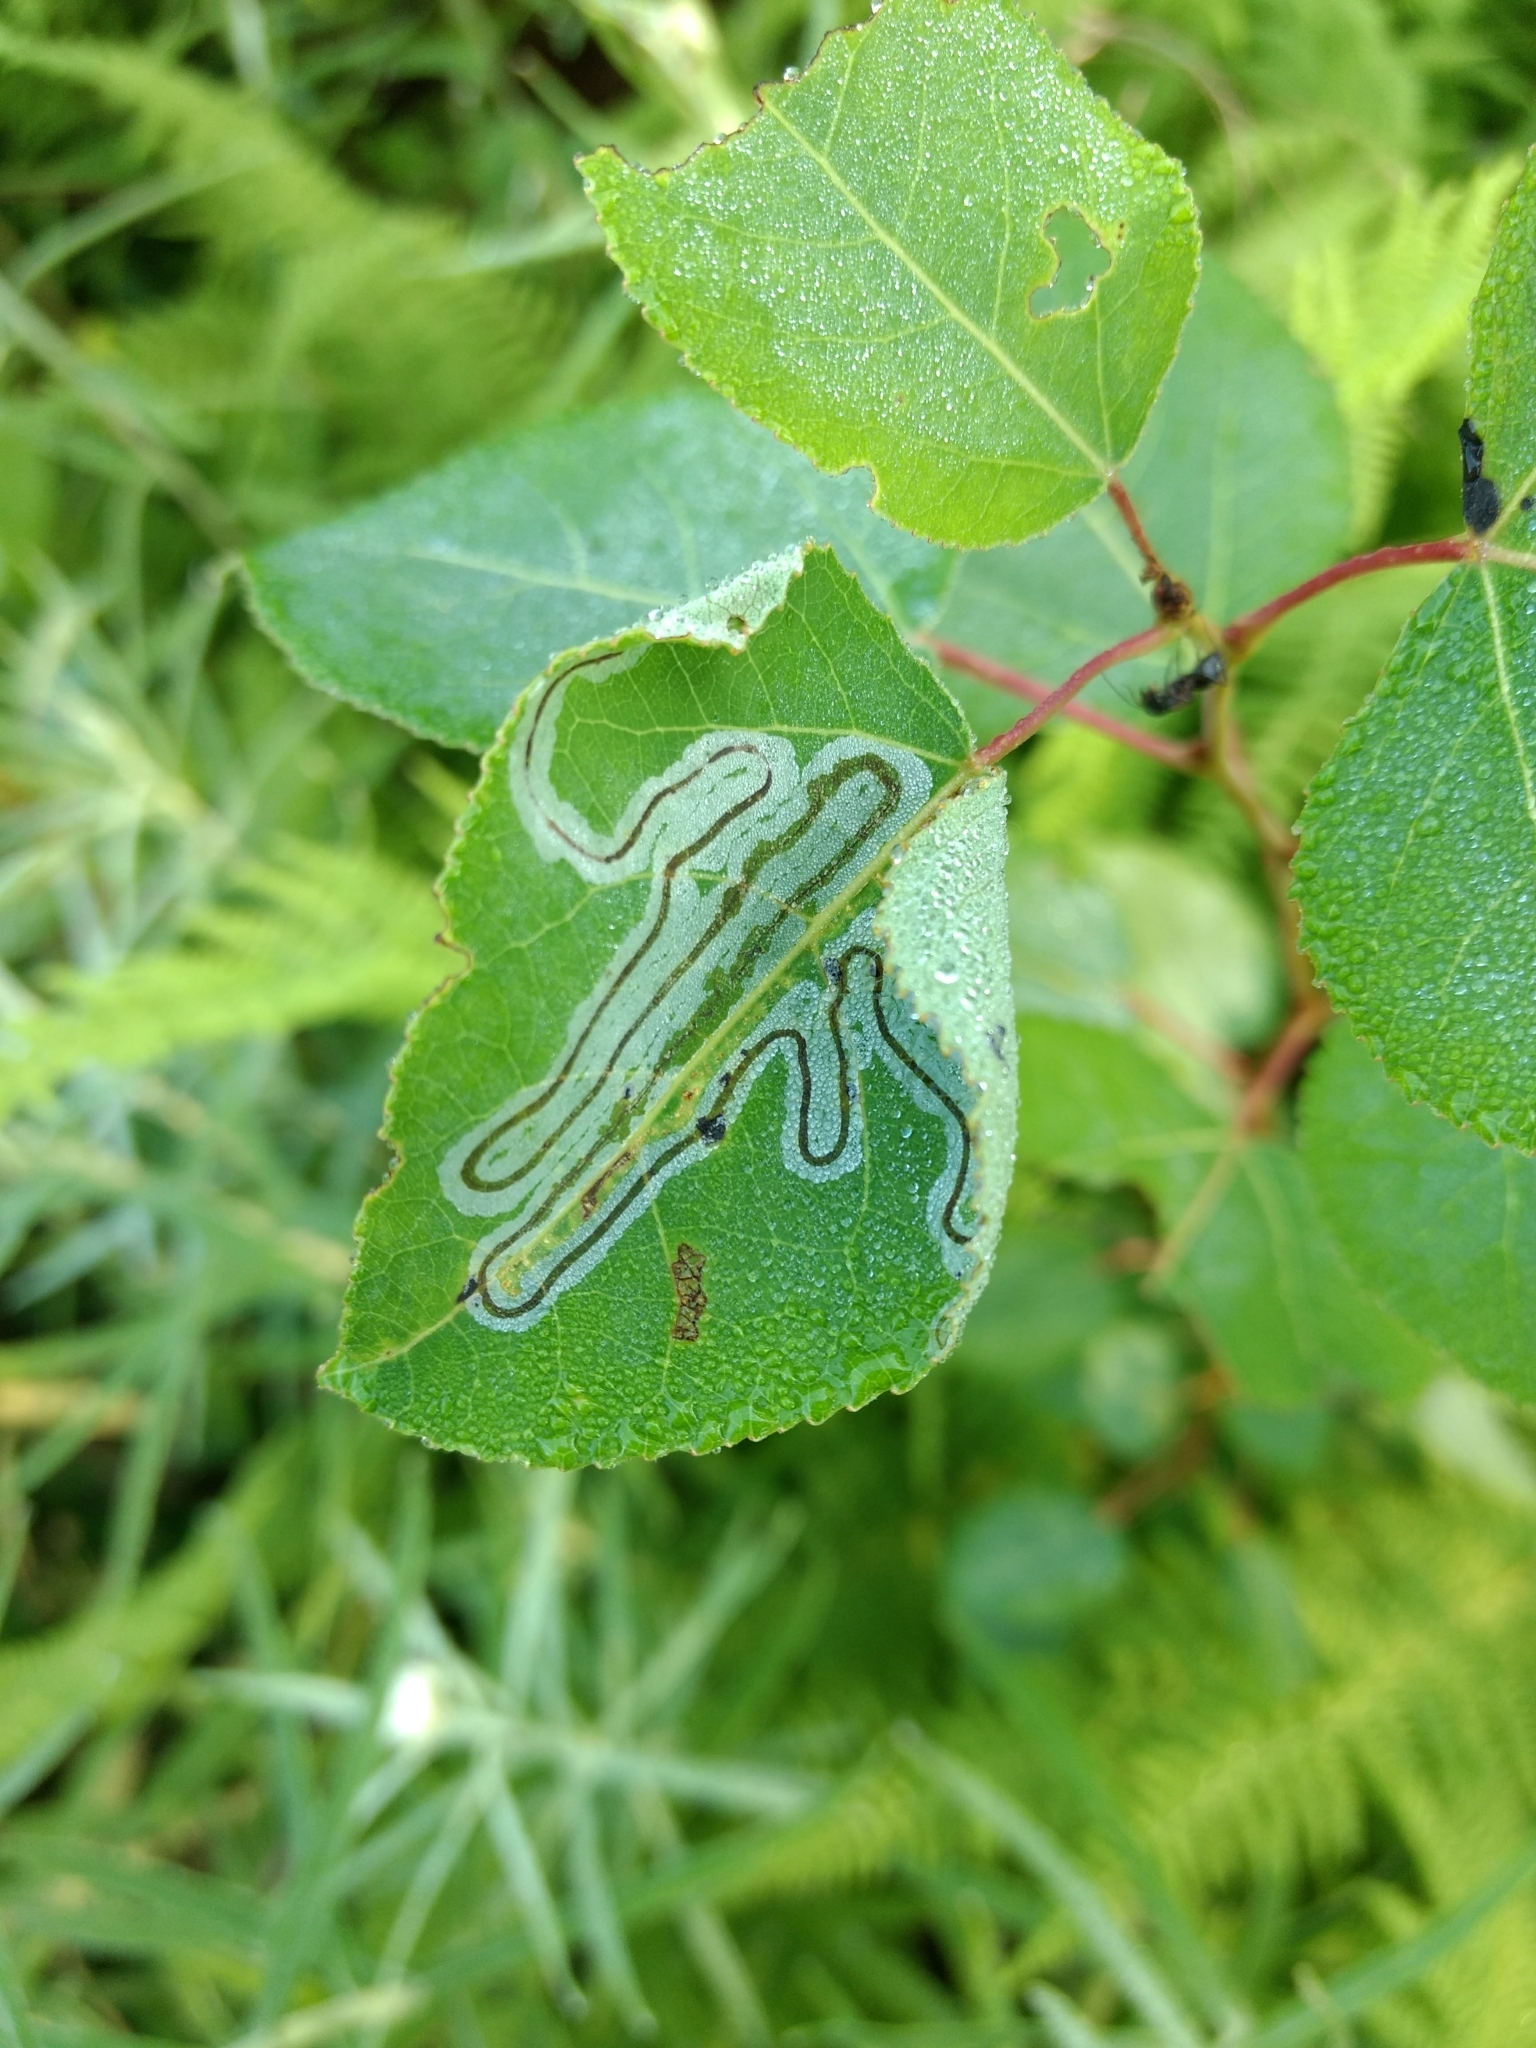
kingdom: Animalia
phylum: Arthropoda
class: Insecta
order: Lepidoptera
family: Gracillariidae
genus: Phyllocnistis
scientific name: Phyllocnistis populiella
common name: Aspen serpentine leafminer moth
